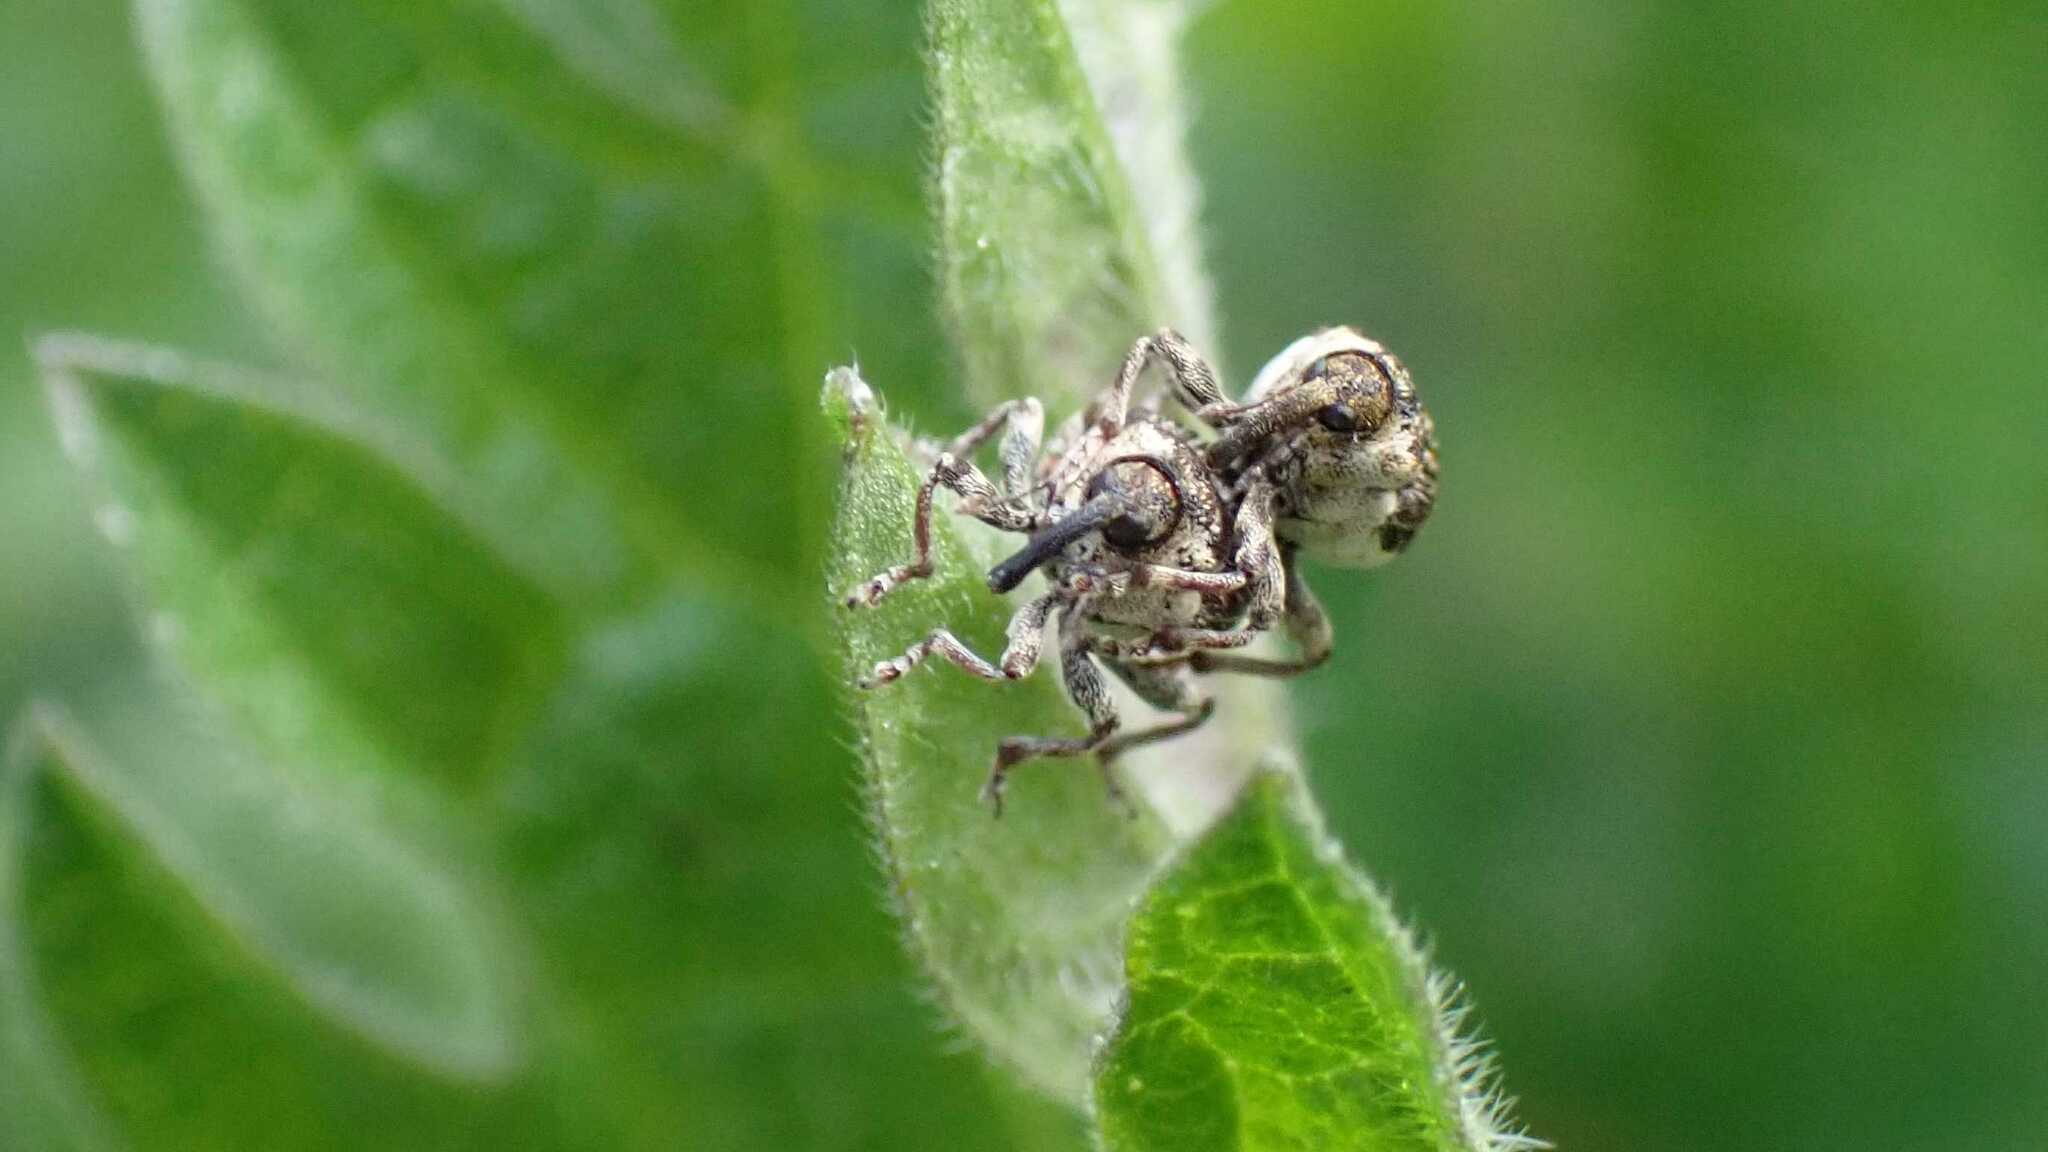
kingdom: Animalia
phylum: Arthropoda
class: Insecta
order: Coleoptera
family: Curculionidae
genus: Nedyus
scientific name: Nedyus quadrimaculatus
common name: Small nettle weevil
